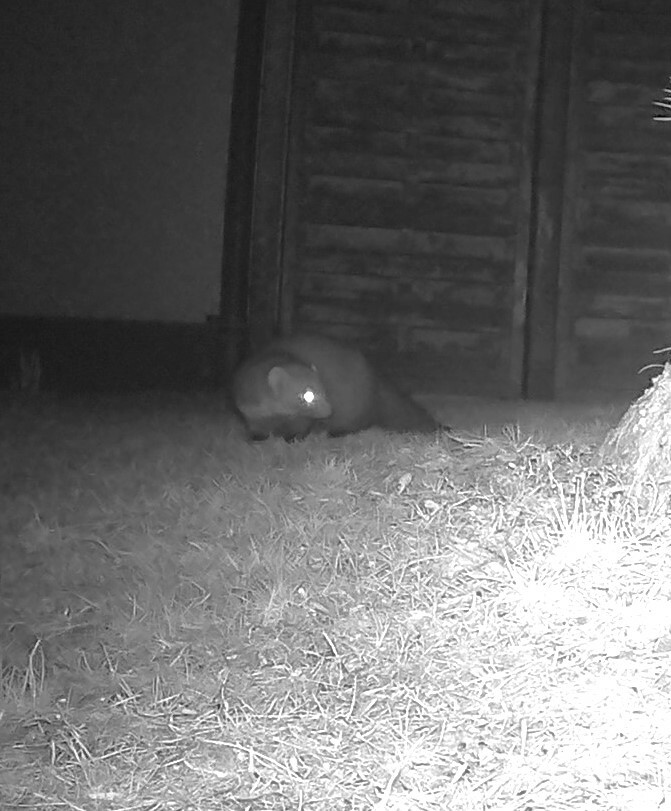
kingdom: Animalia
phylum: Chordata
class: Mammalia
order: Carnivora
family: Mustelidae
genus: Martes
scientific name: Martes foina
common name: Beech marten
